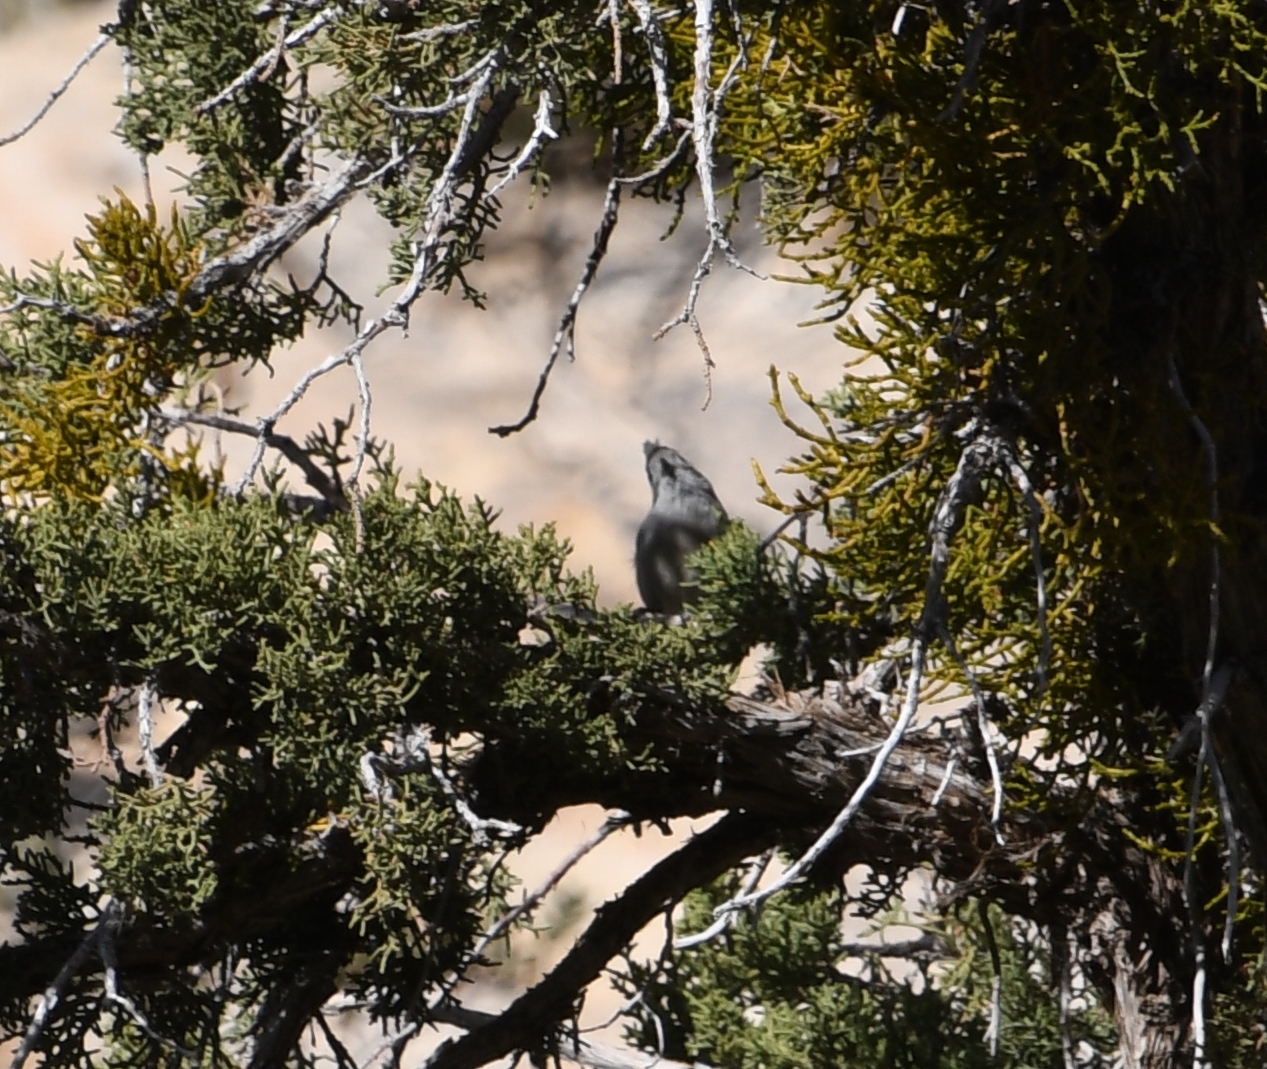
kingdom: Animalia
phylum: Chordata
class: Aves
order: Passeriformes
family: Paridae
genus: Baeolophus
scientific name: Baeolophus ridgwayi
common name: Juniper titmouse
